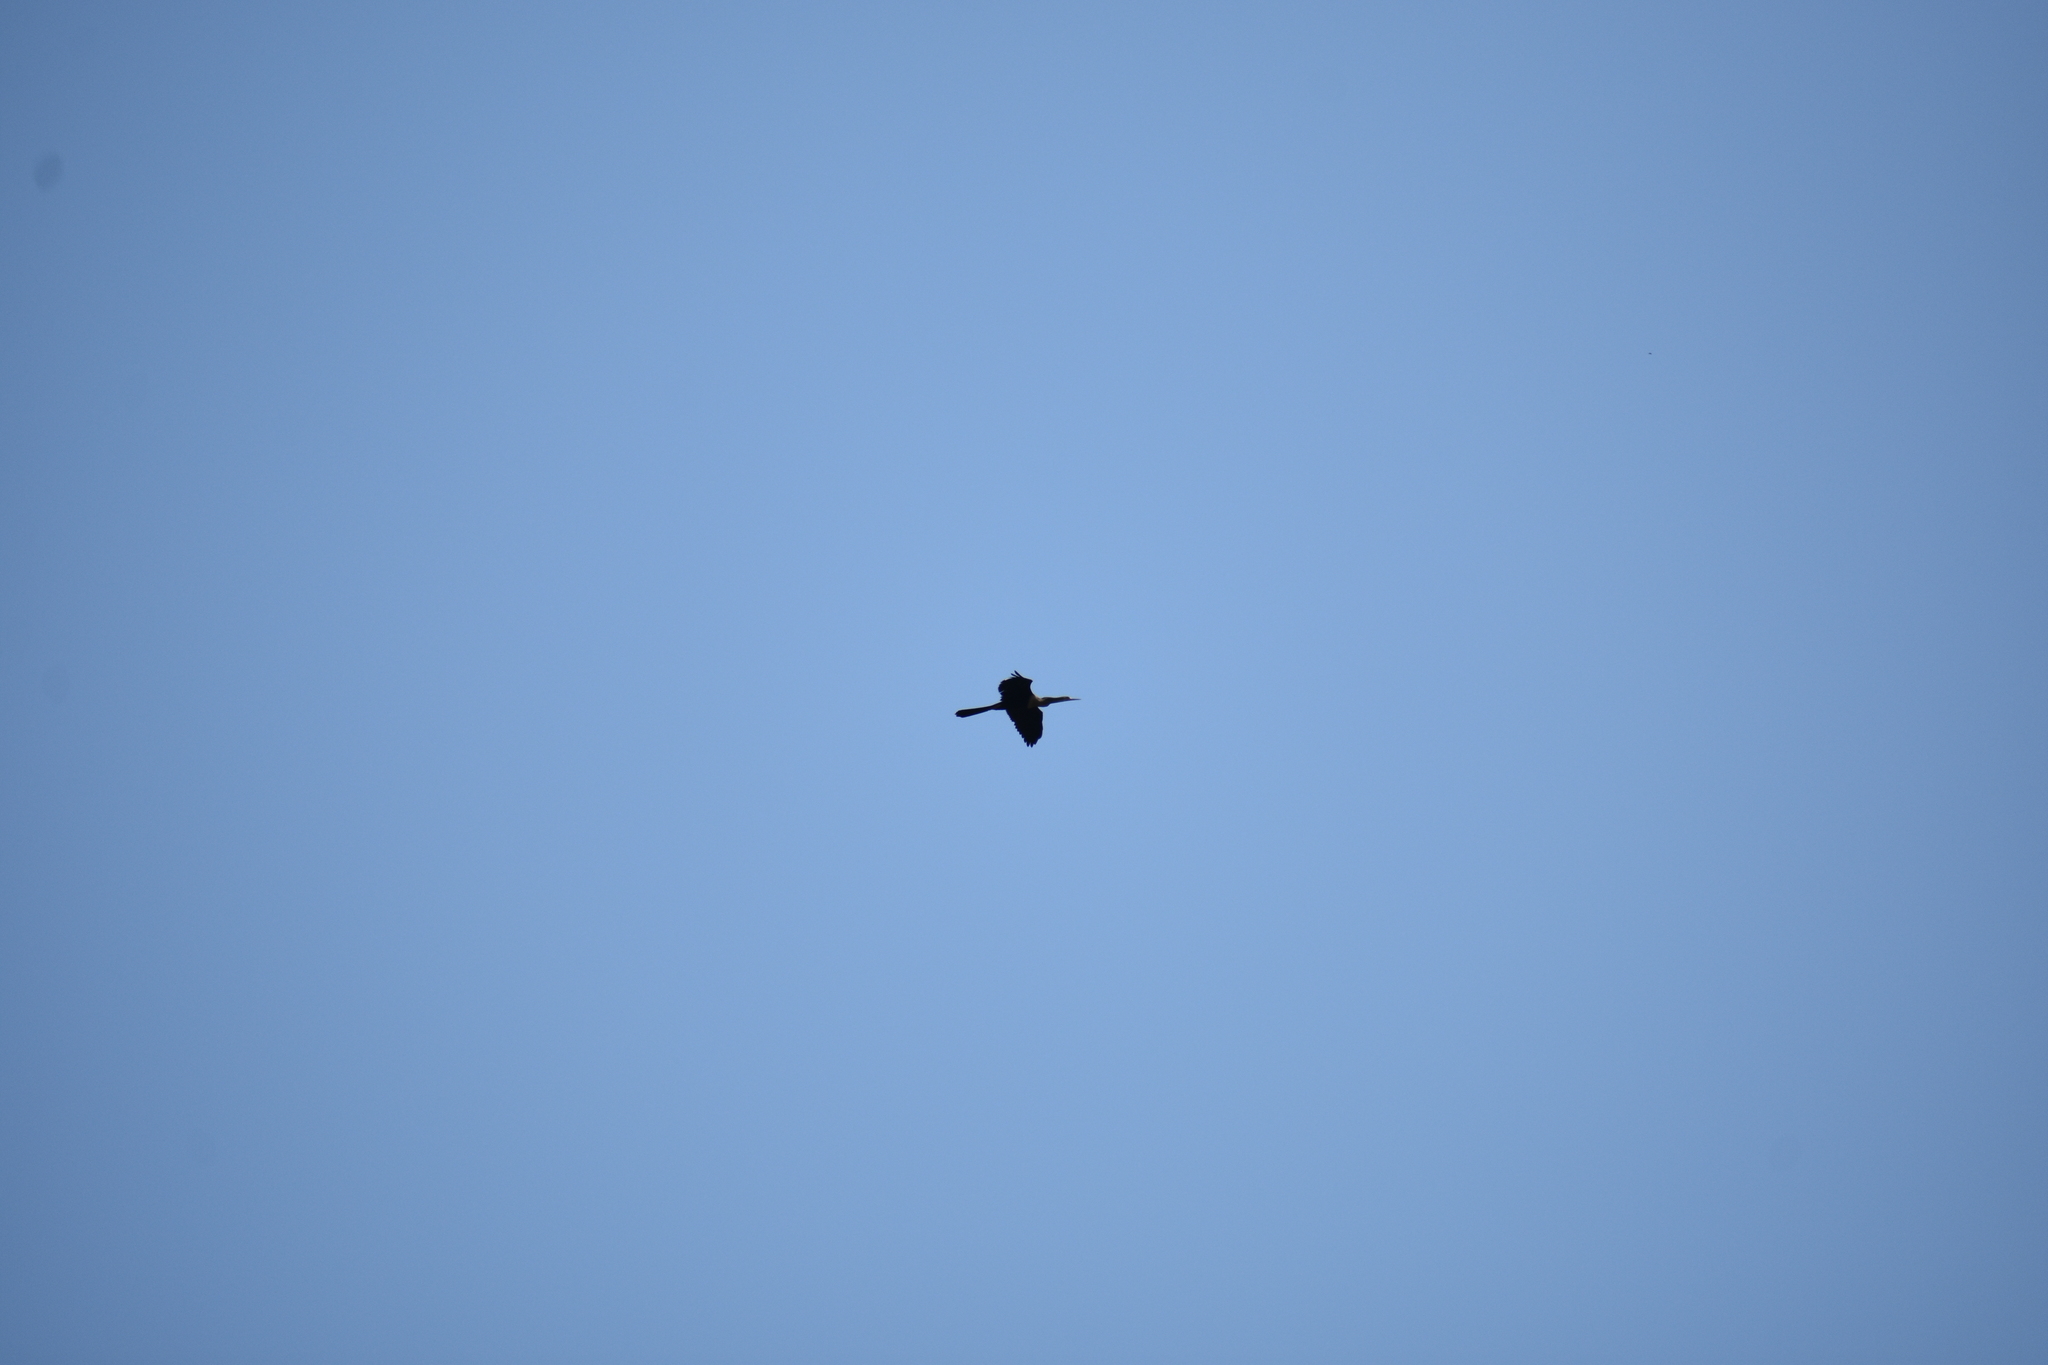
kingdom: Animalia
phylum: Chordata
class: Aves
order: Suliformes
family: Anhingidae
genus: Anhinga
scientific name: Anhinga anhinga
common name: Anhinga
